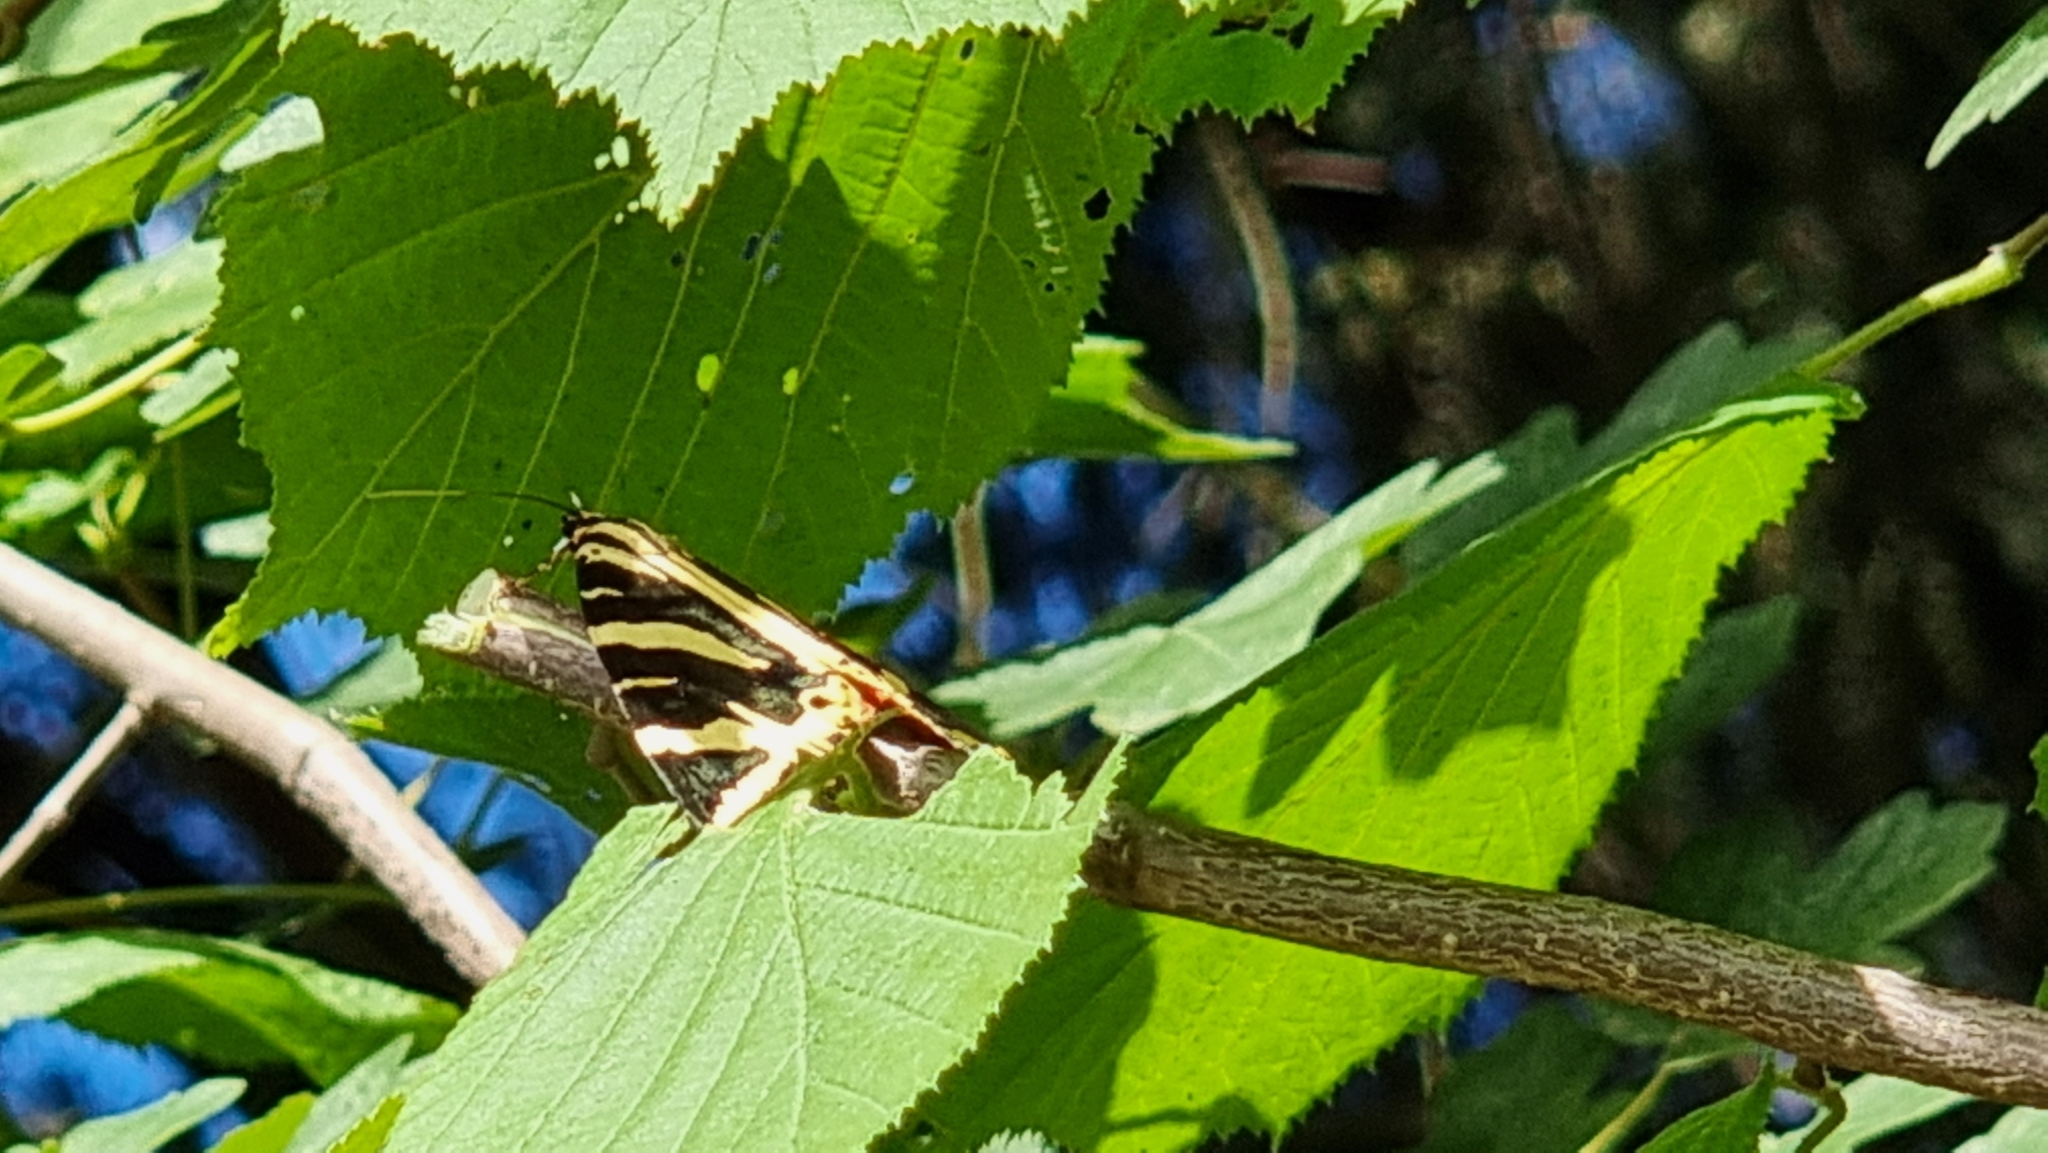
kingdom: Animalia
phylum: Arthropoda
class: Insecta
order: Lepidoptera
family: Erebidae
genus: Euplagia
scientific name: Euplagia quadripunctaria
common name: Jersey tiger
